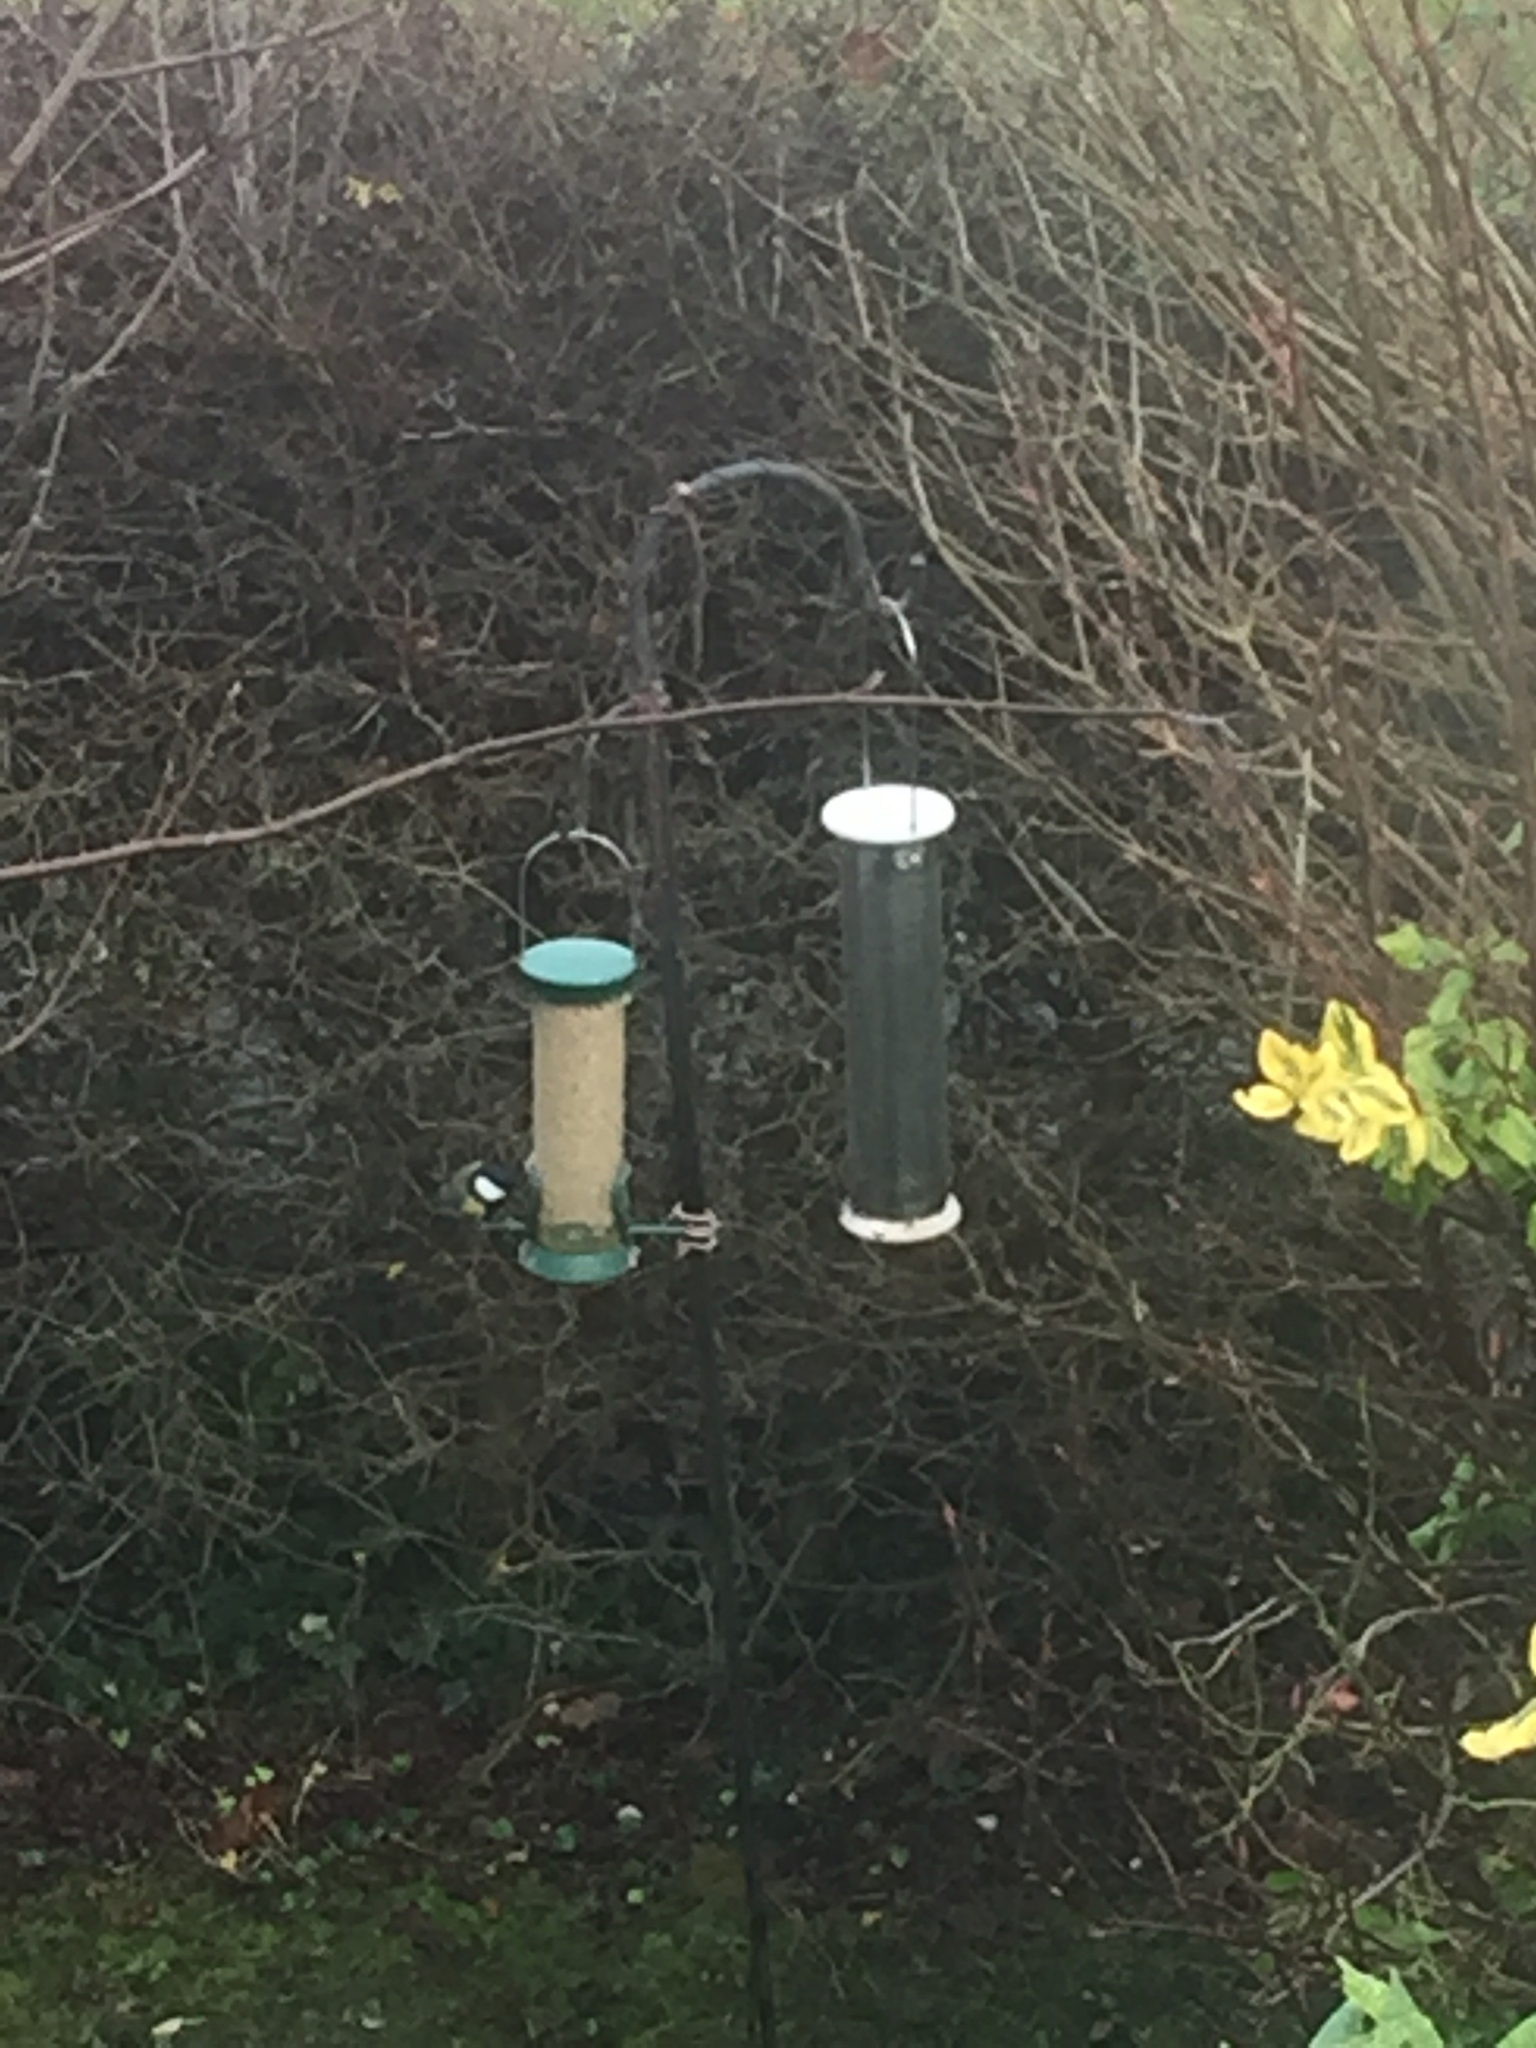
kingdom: Animalia
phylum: Chordata
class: Aves
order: Passeriformes
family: Paridae
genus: Parus
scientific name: Parus major
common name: Great tit
